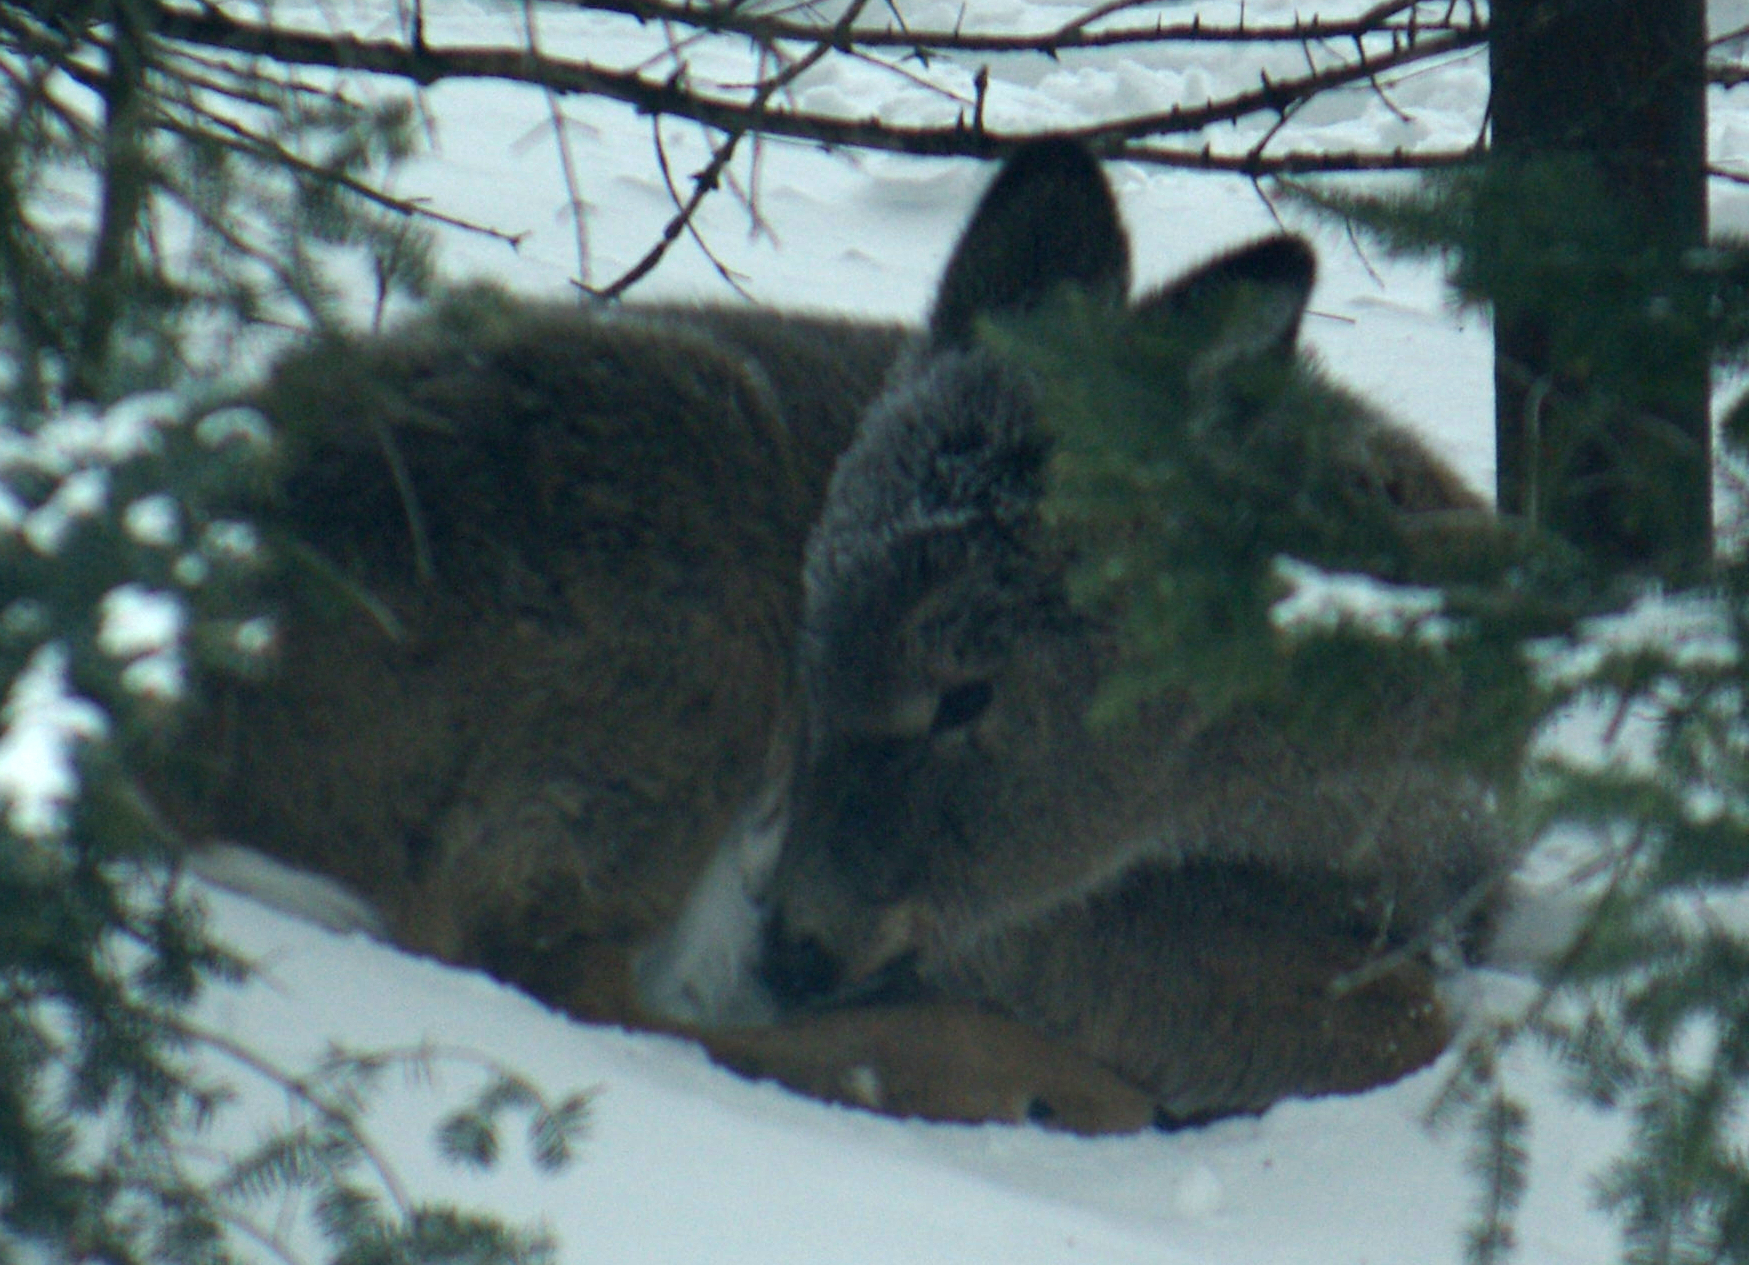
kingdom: Animalia
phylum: Chordata
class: Mammalia
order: Artiodactyla
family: Cervidae
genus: Odocoileus
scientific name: Odocoileus virginianus
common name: White-tailed deer
